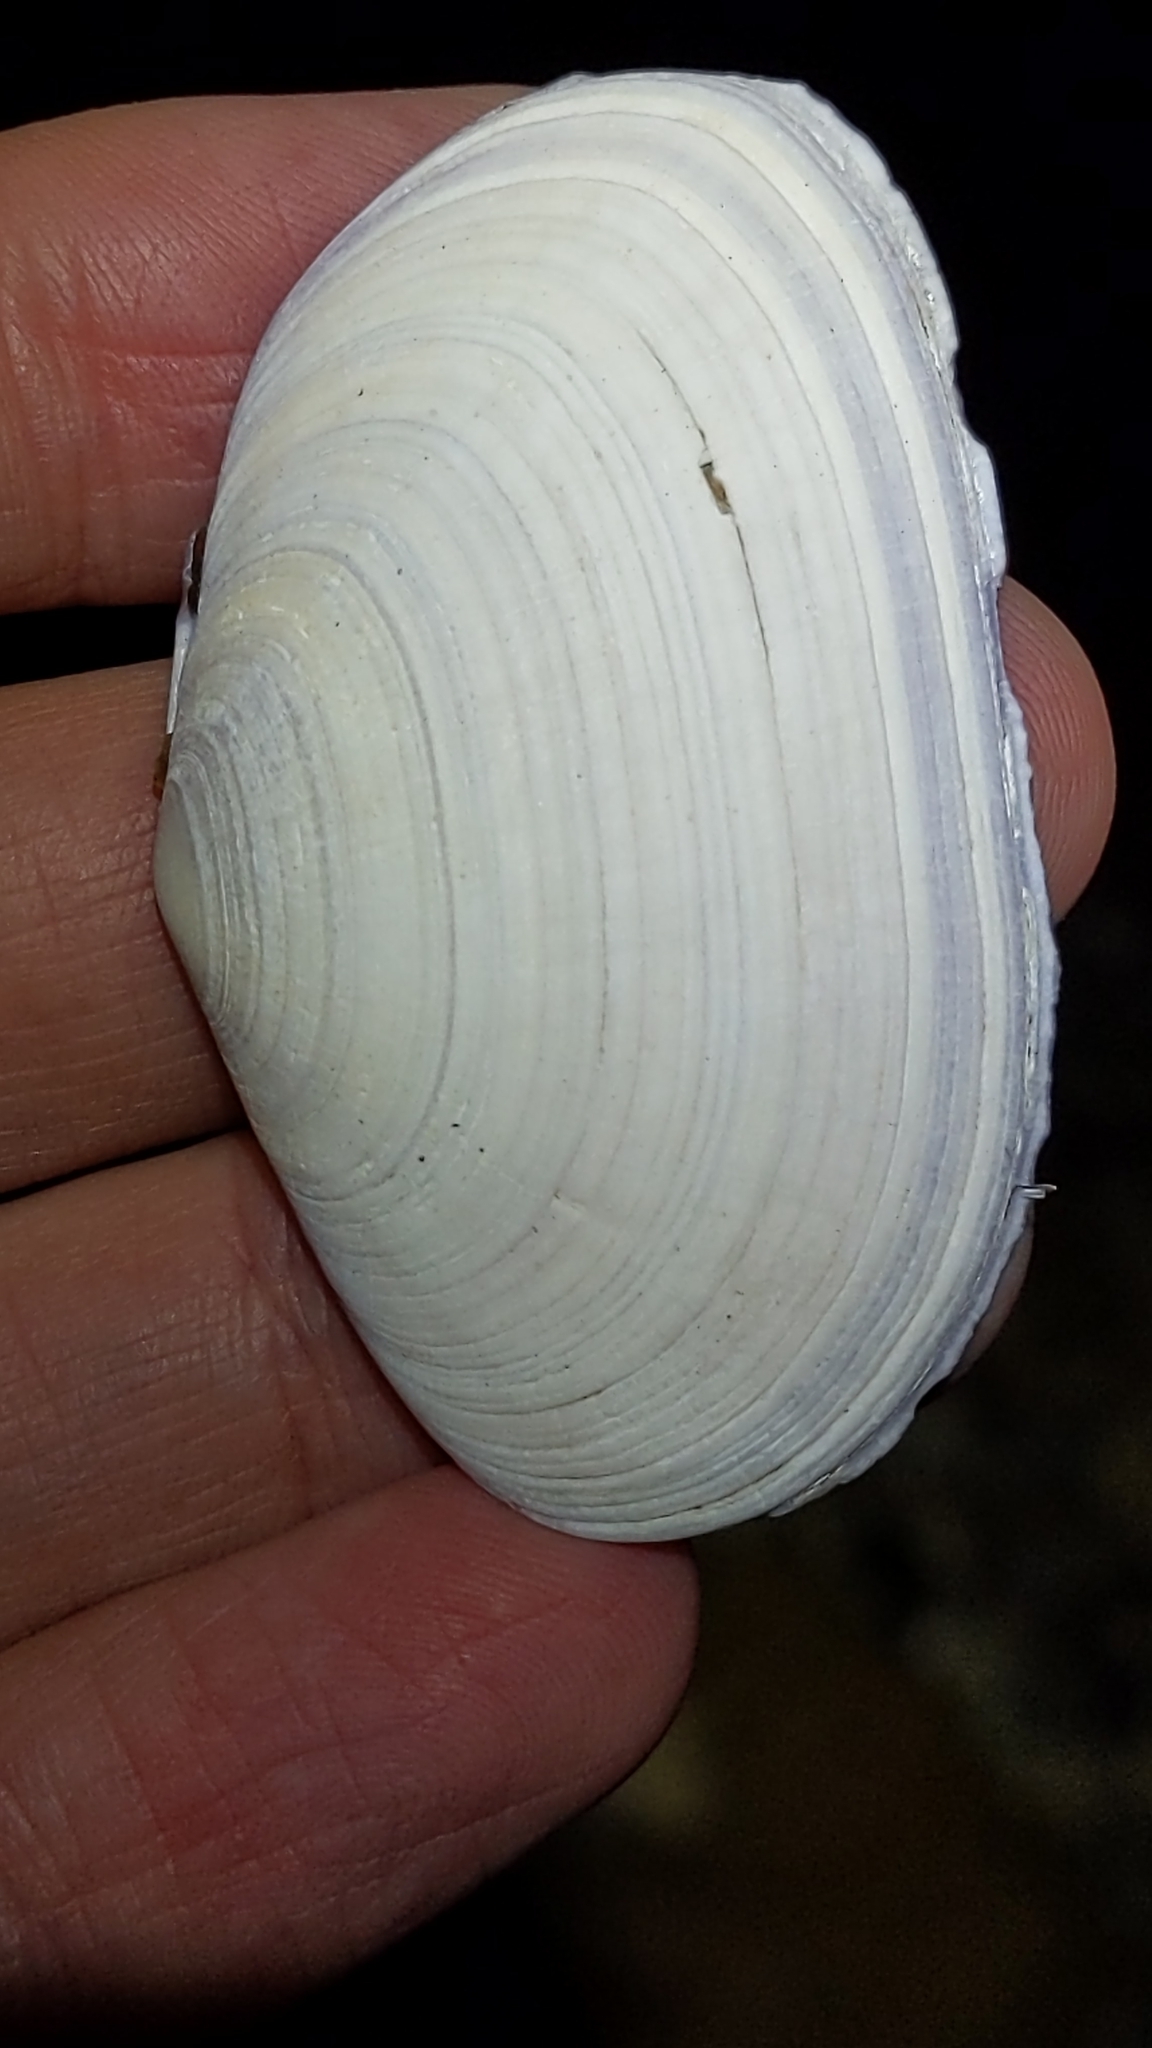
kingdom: Animalia
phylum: Mollusca
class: Bivalvia
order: Cardiida
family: Psammobiidae
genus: Gari
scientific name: Gari stangeri
